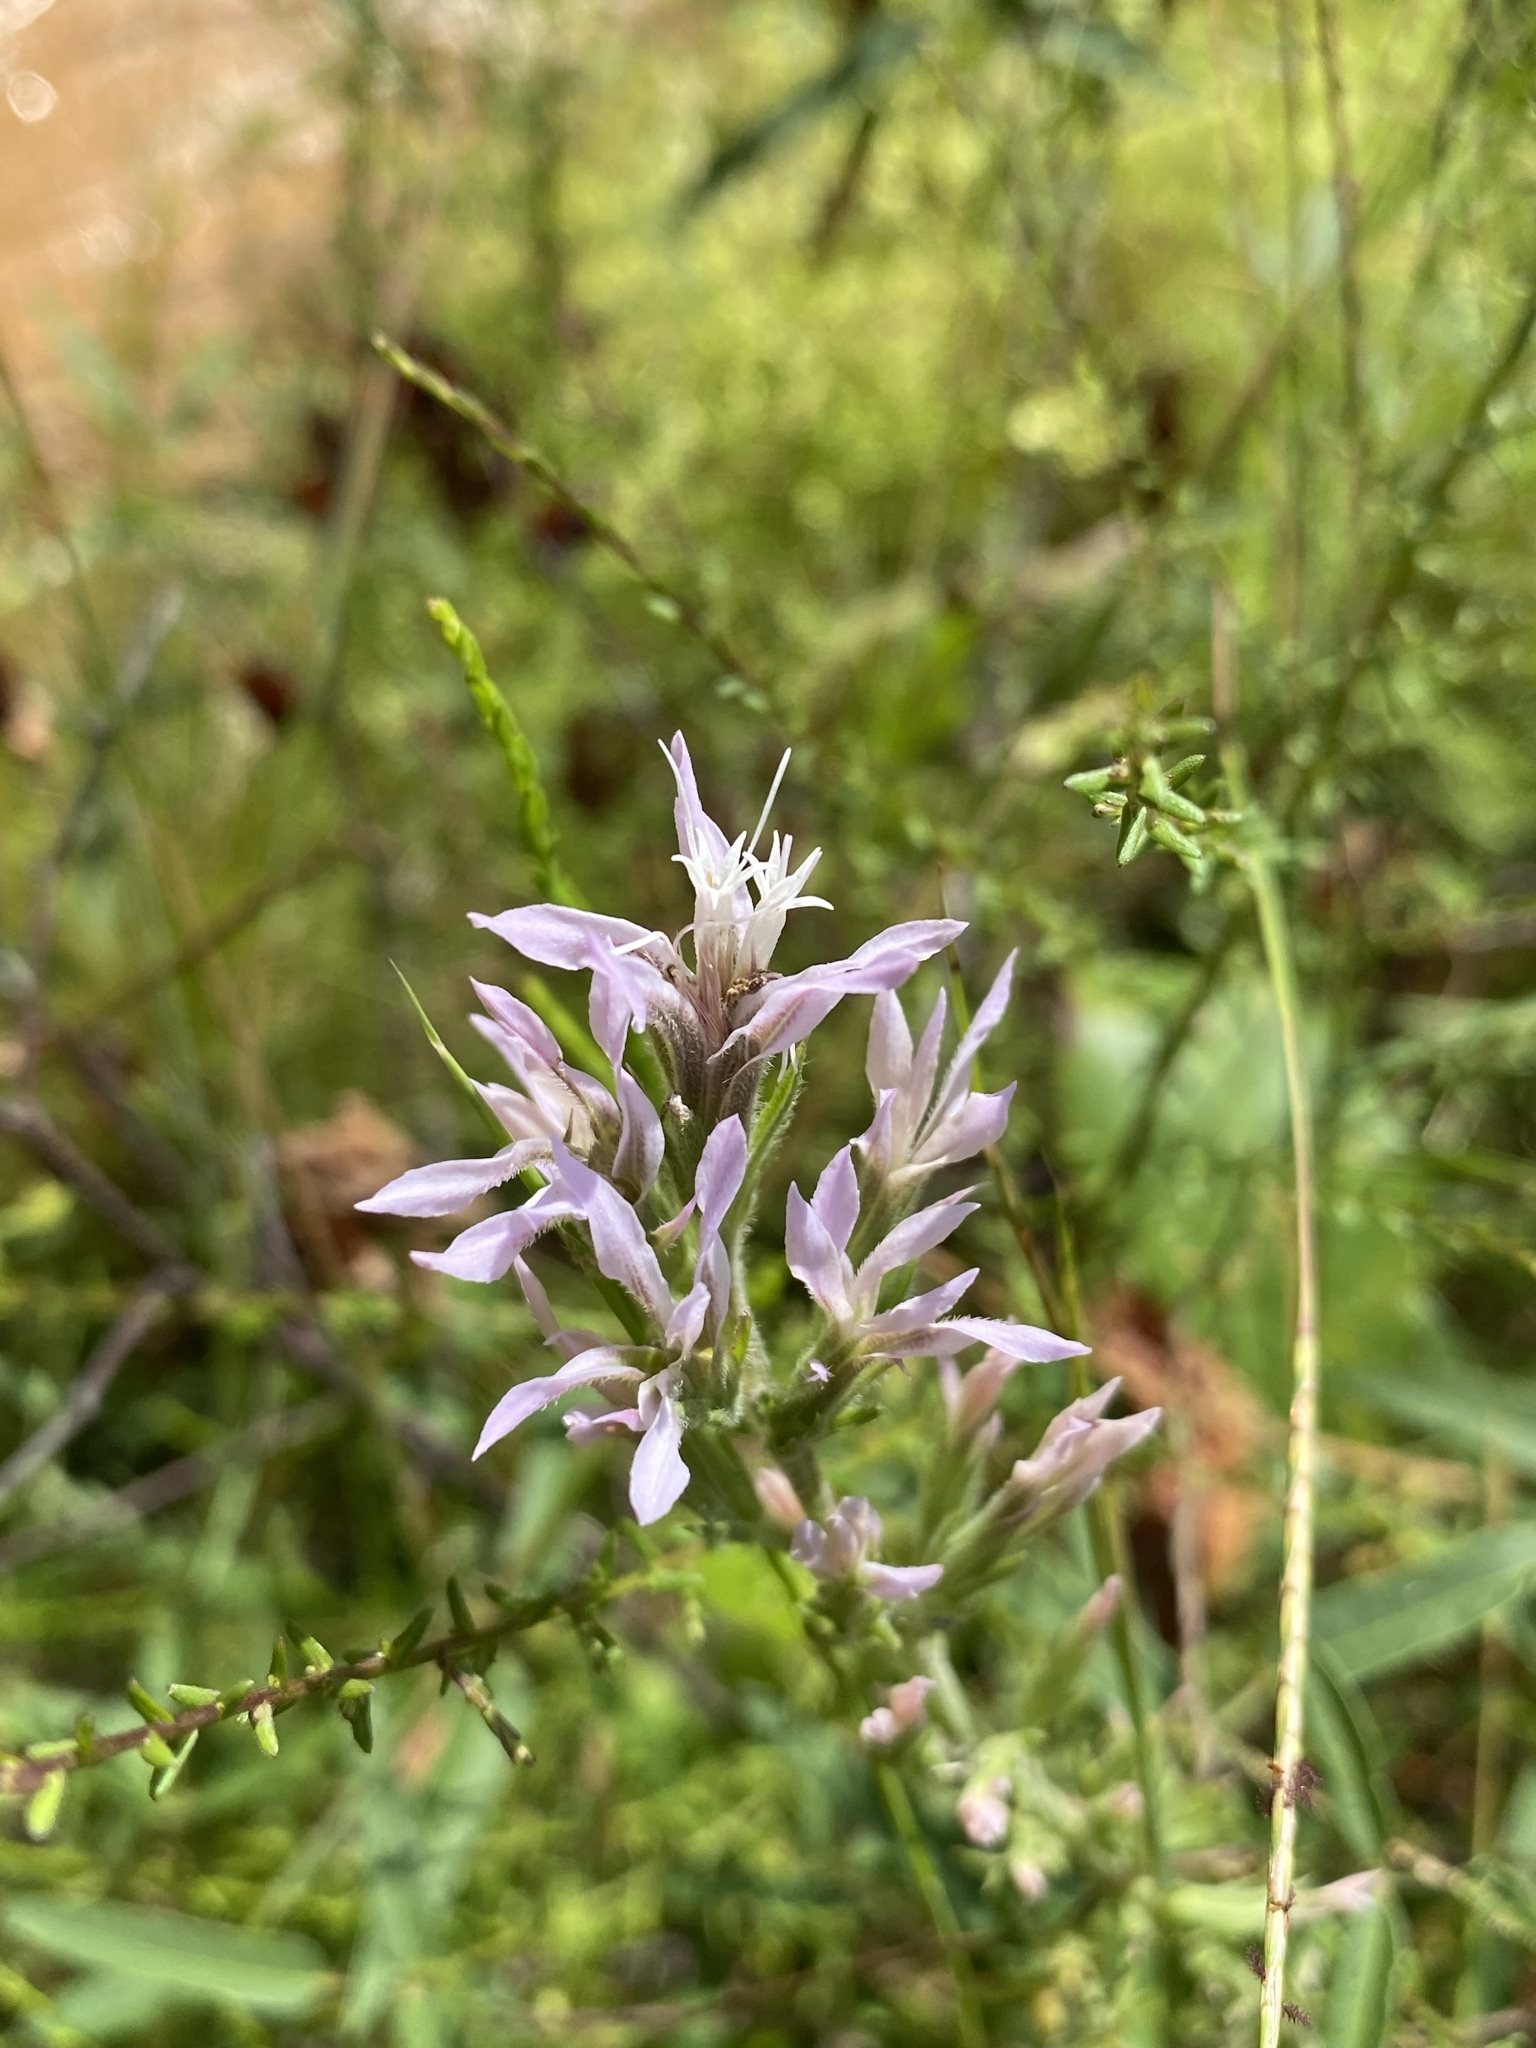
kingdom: Plantae
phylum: Tracheophyta
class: Magnoliopsida
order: Asterales
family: Asteraceae
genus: Liatris
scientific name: Liatris elegans
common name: Pinkscale gayfeather
